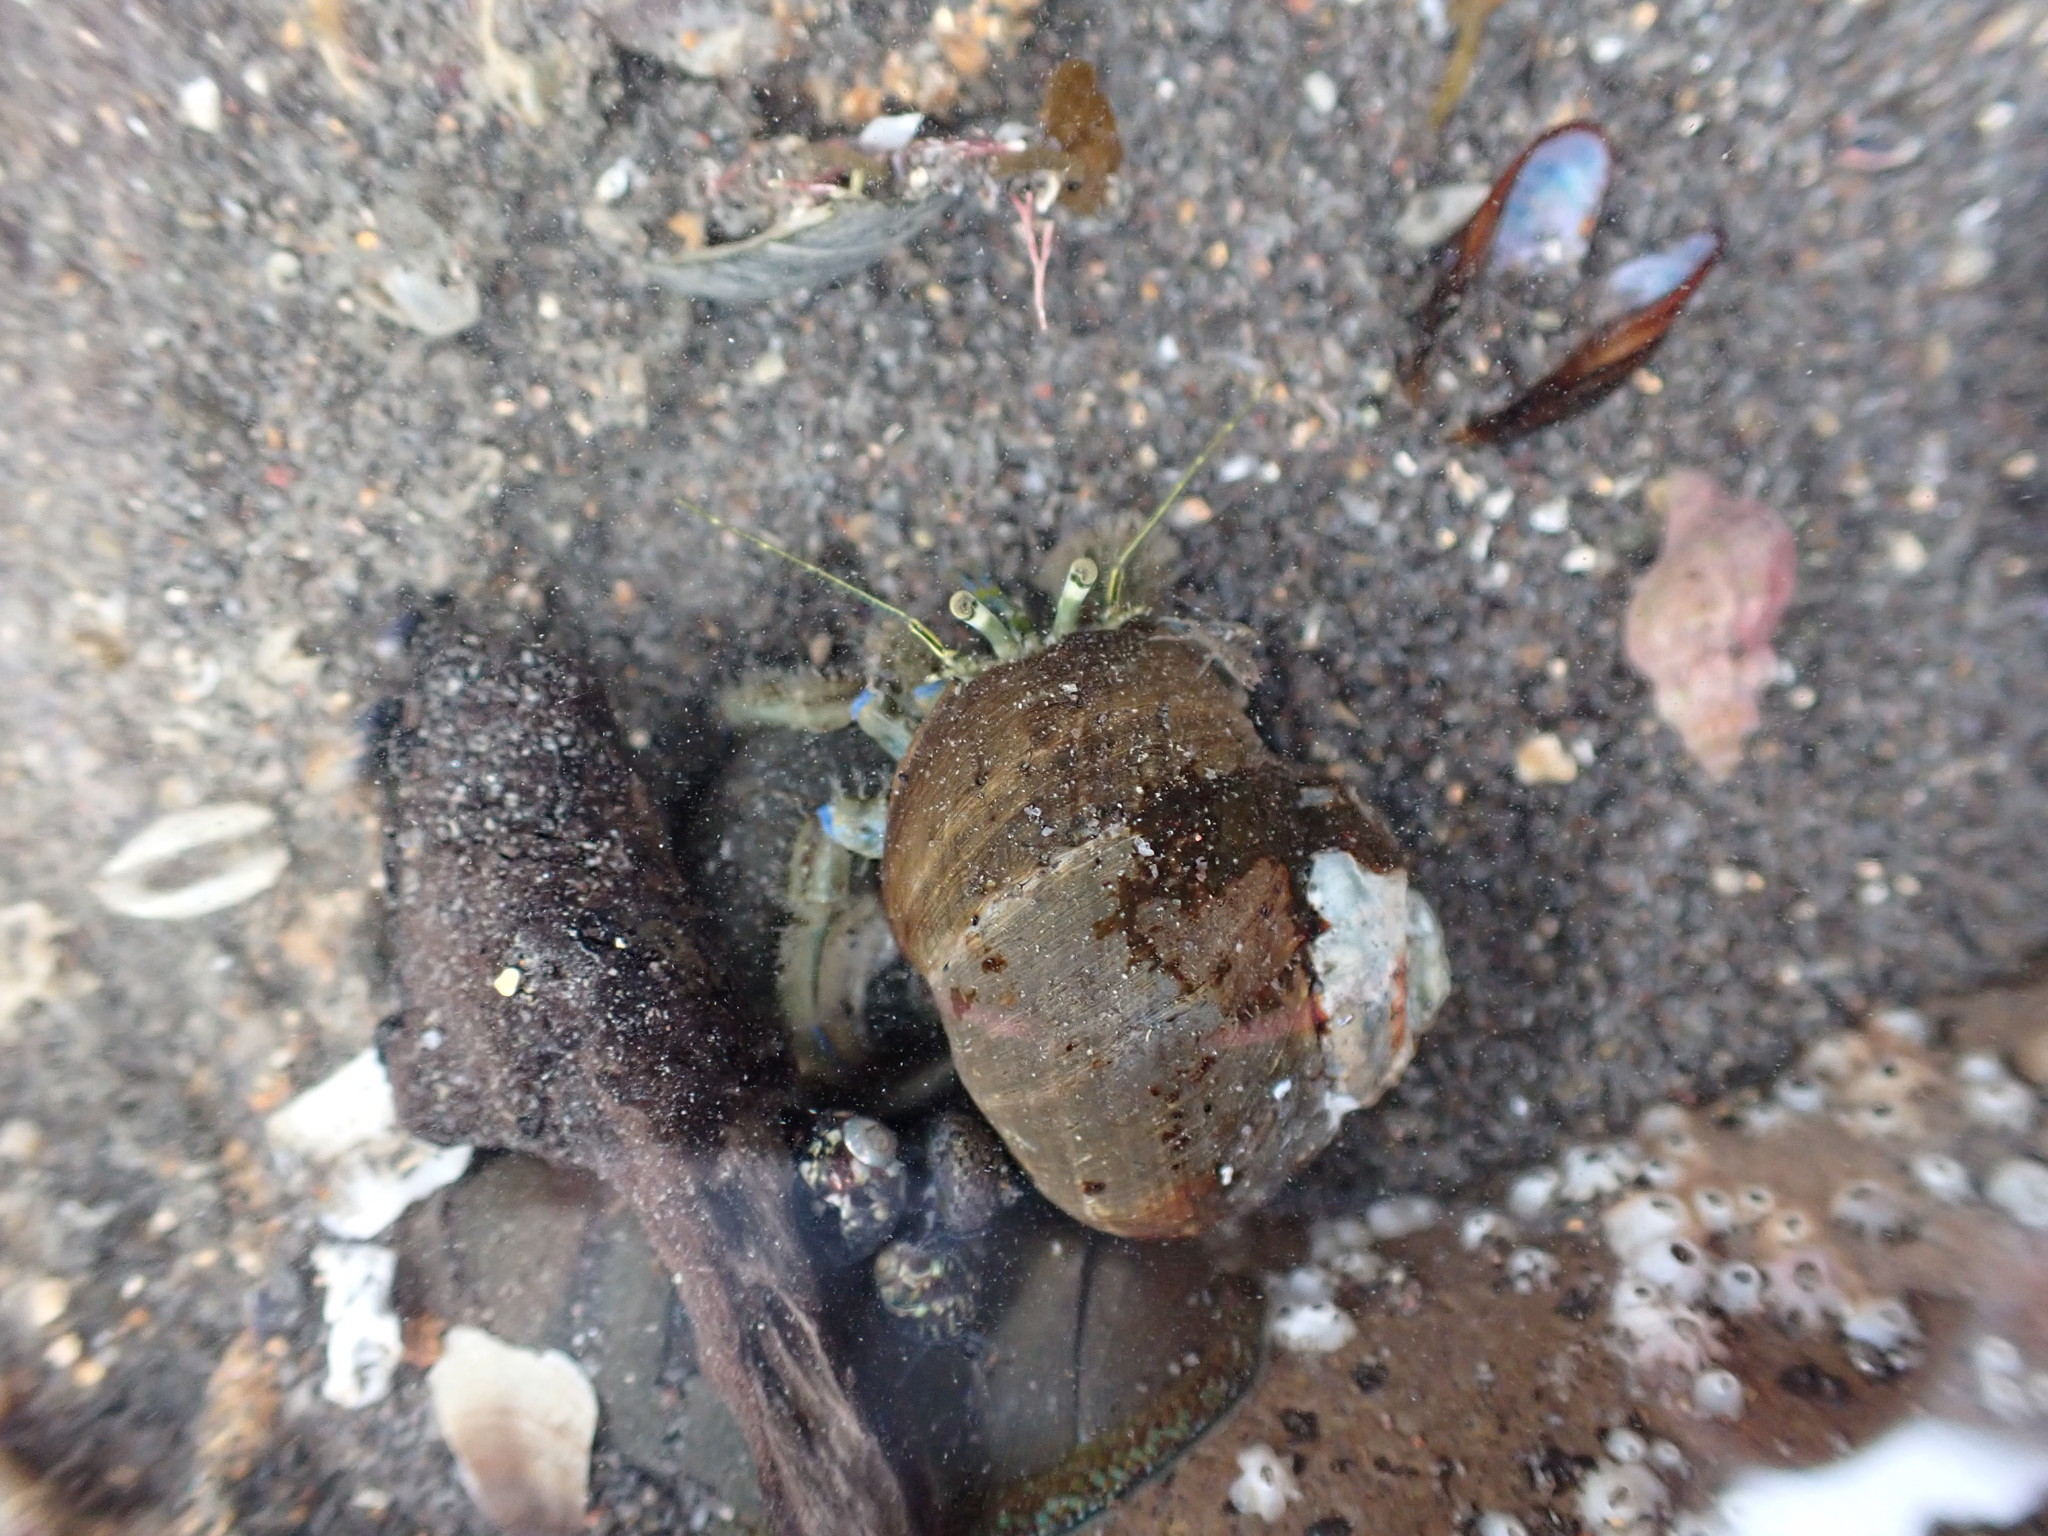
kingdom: Animalia
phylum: Arthropoda
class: Malacostraca
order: Decapoda
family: Paguridae
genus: Pagurus
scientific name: Pagurus novizealandiae
